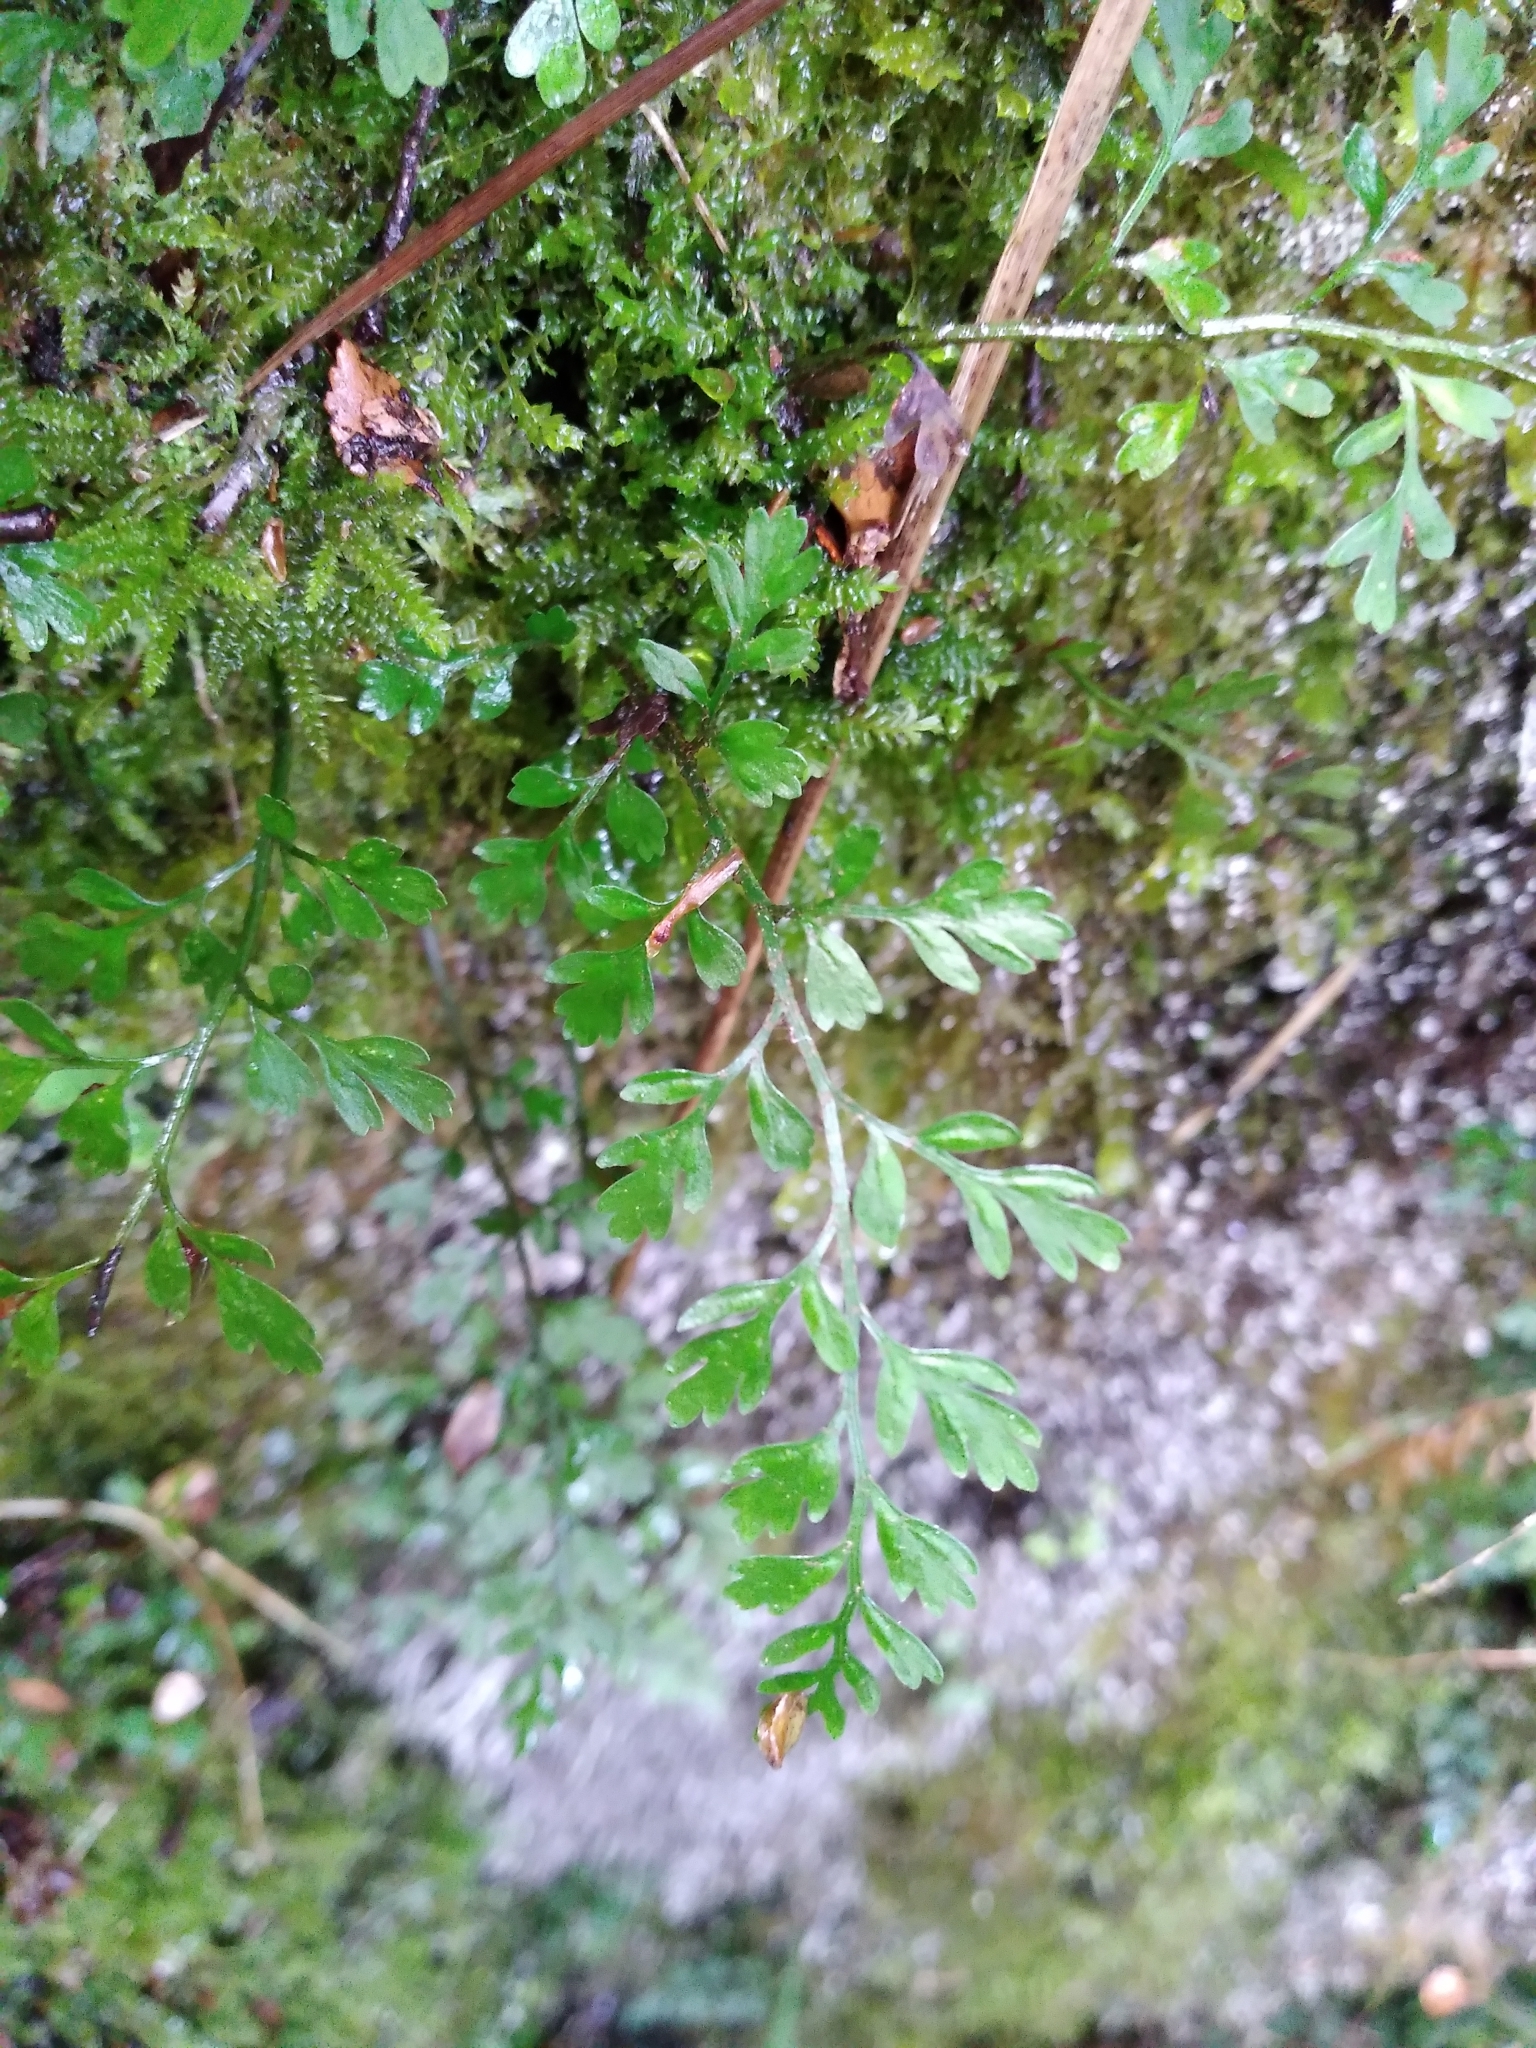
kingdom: Plantae
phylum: Tracheophyta
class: Polypodiopsida
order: Polypodiales
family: Aspleniaceae
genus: Asplenium
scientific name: Asplenium hookerianum
